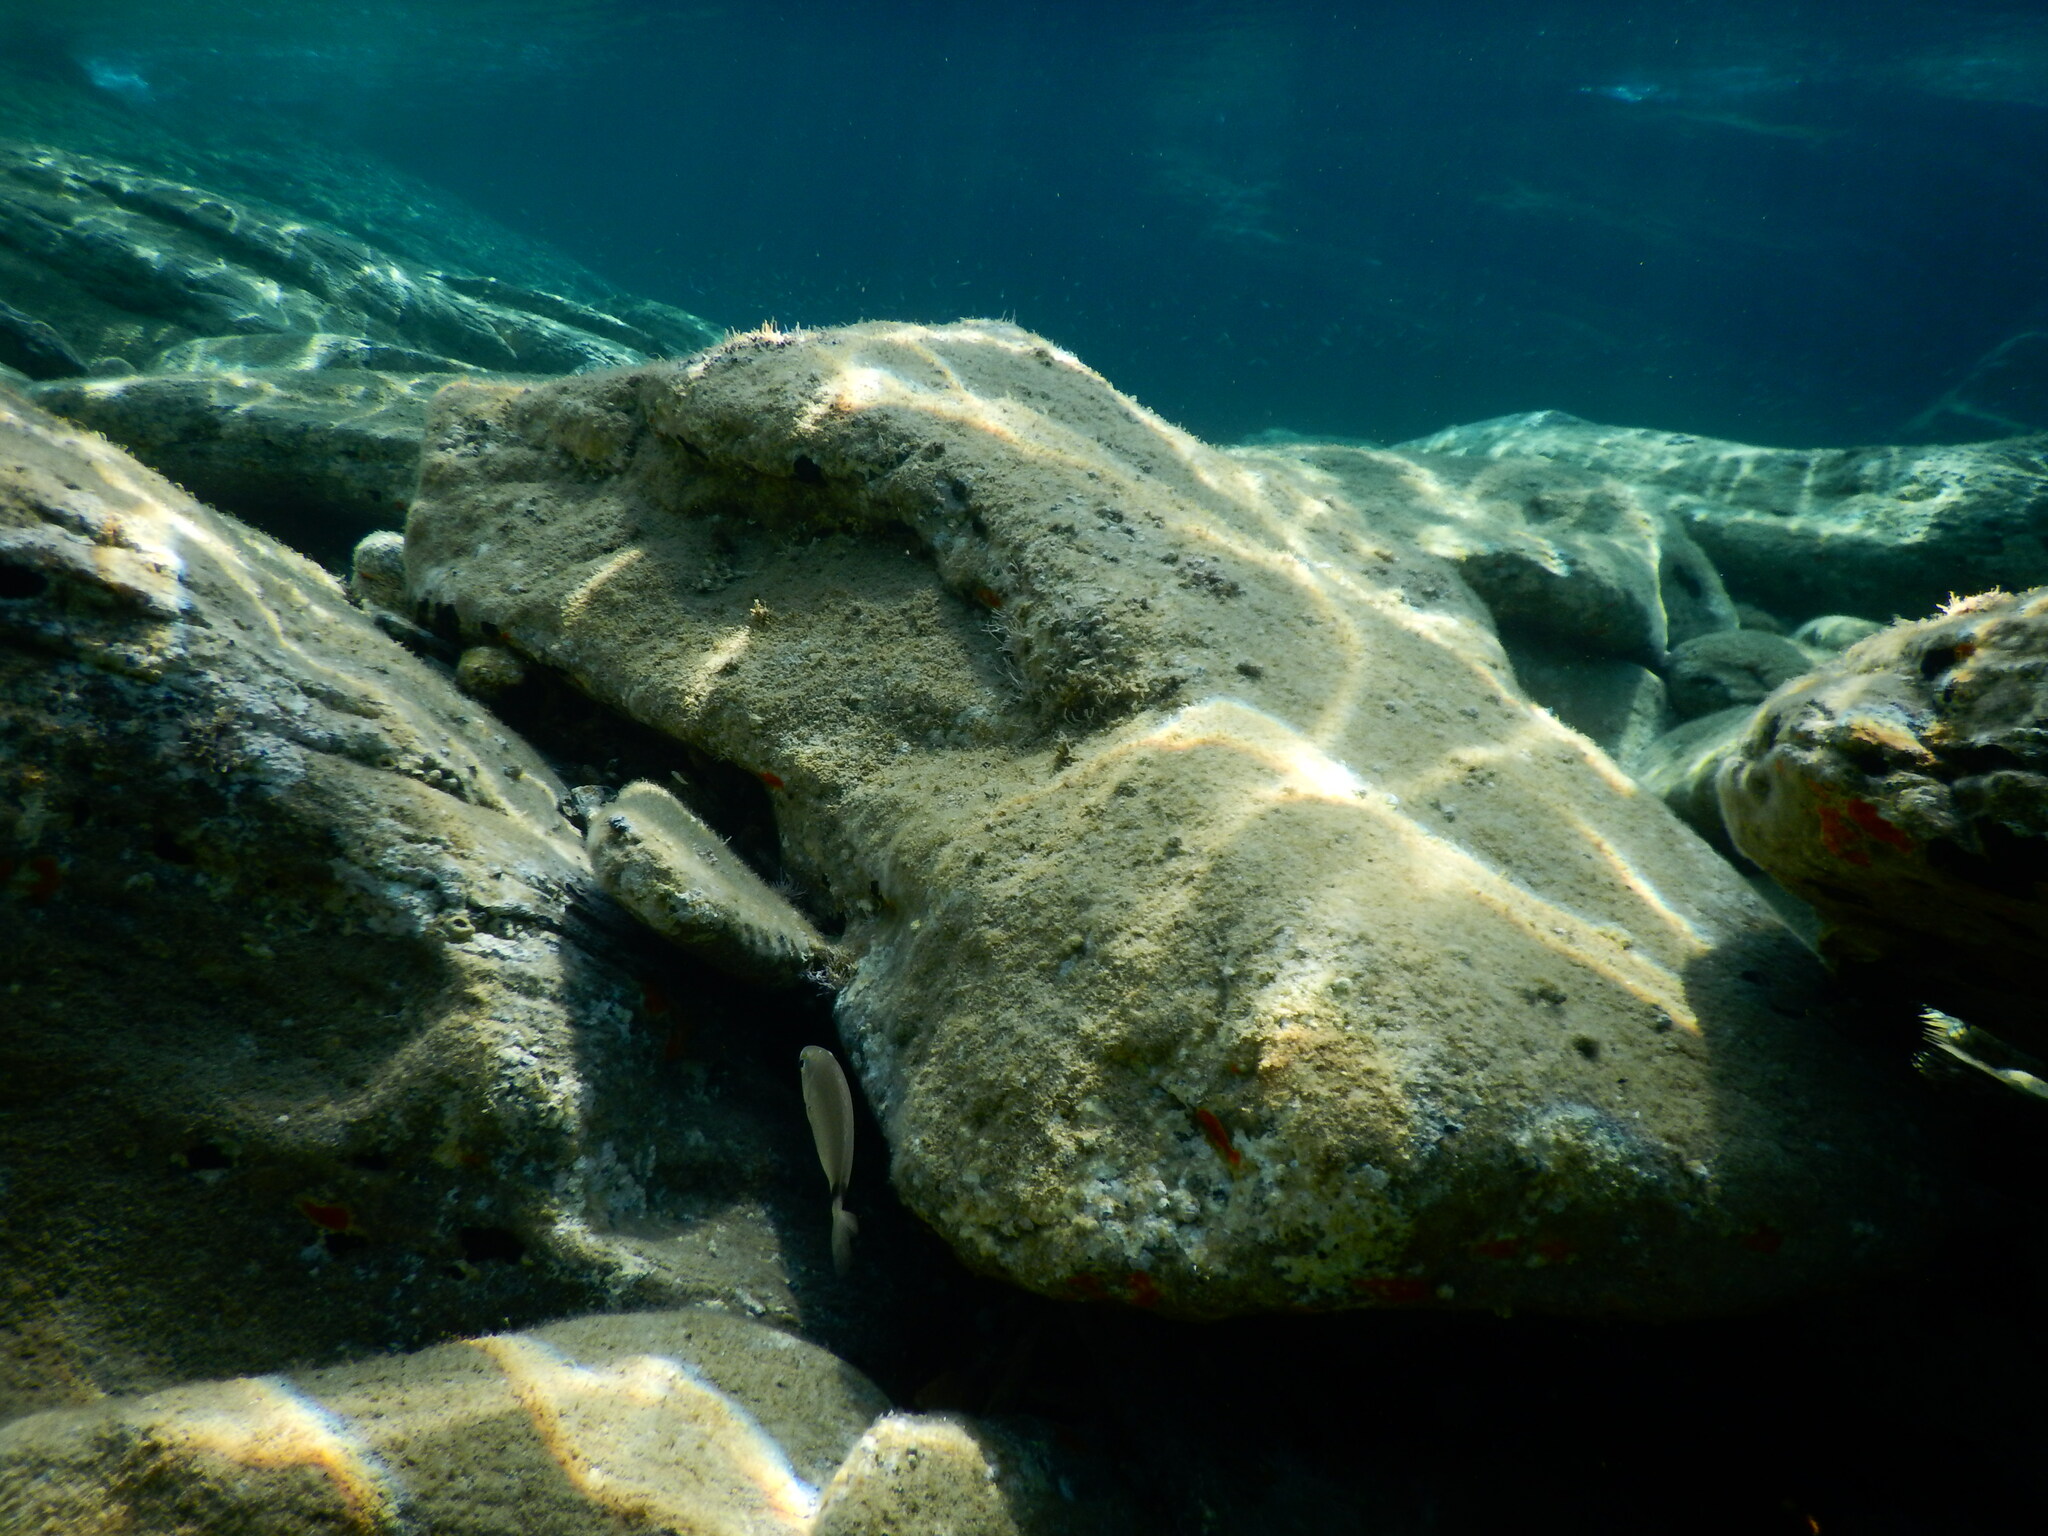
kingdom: Animalia
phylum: Chordata
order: Perciformes
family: Sparidae
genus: Diplodus
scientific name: Diplodus
